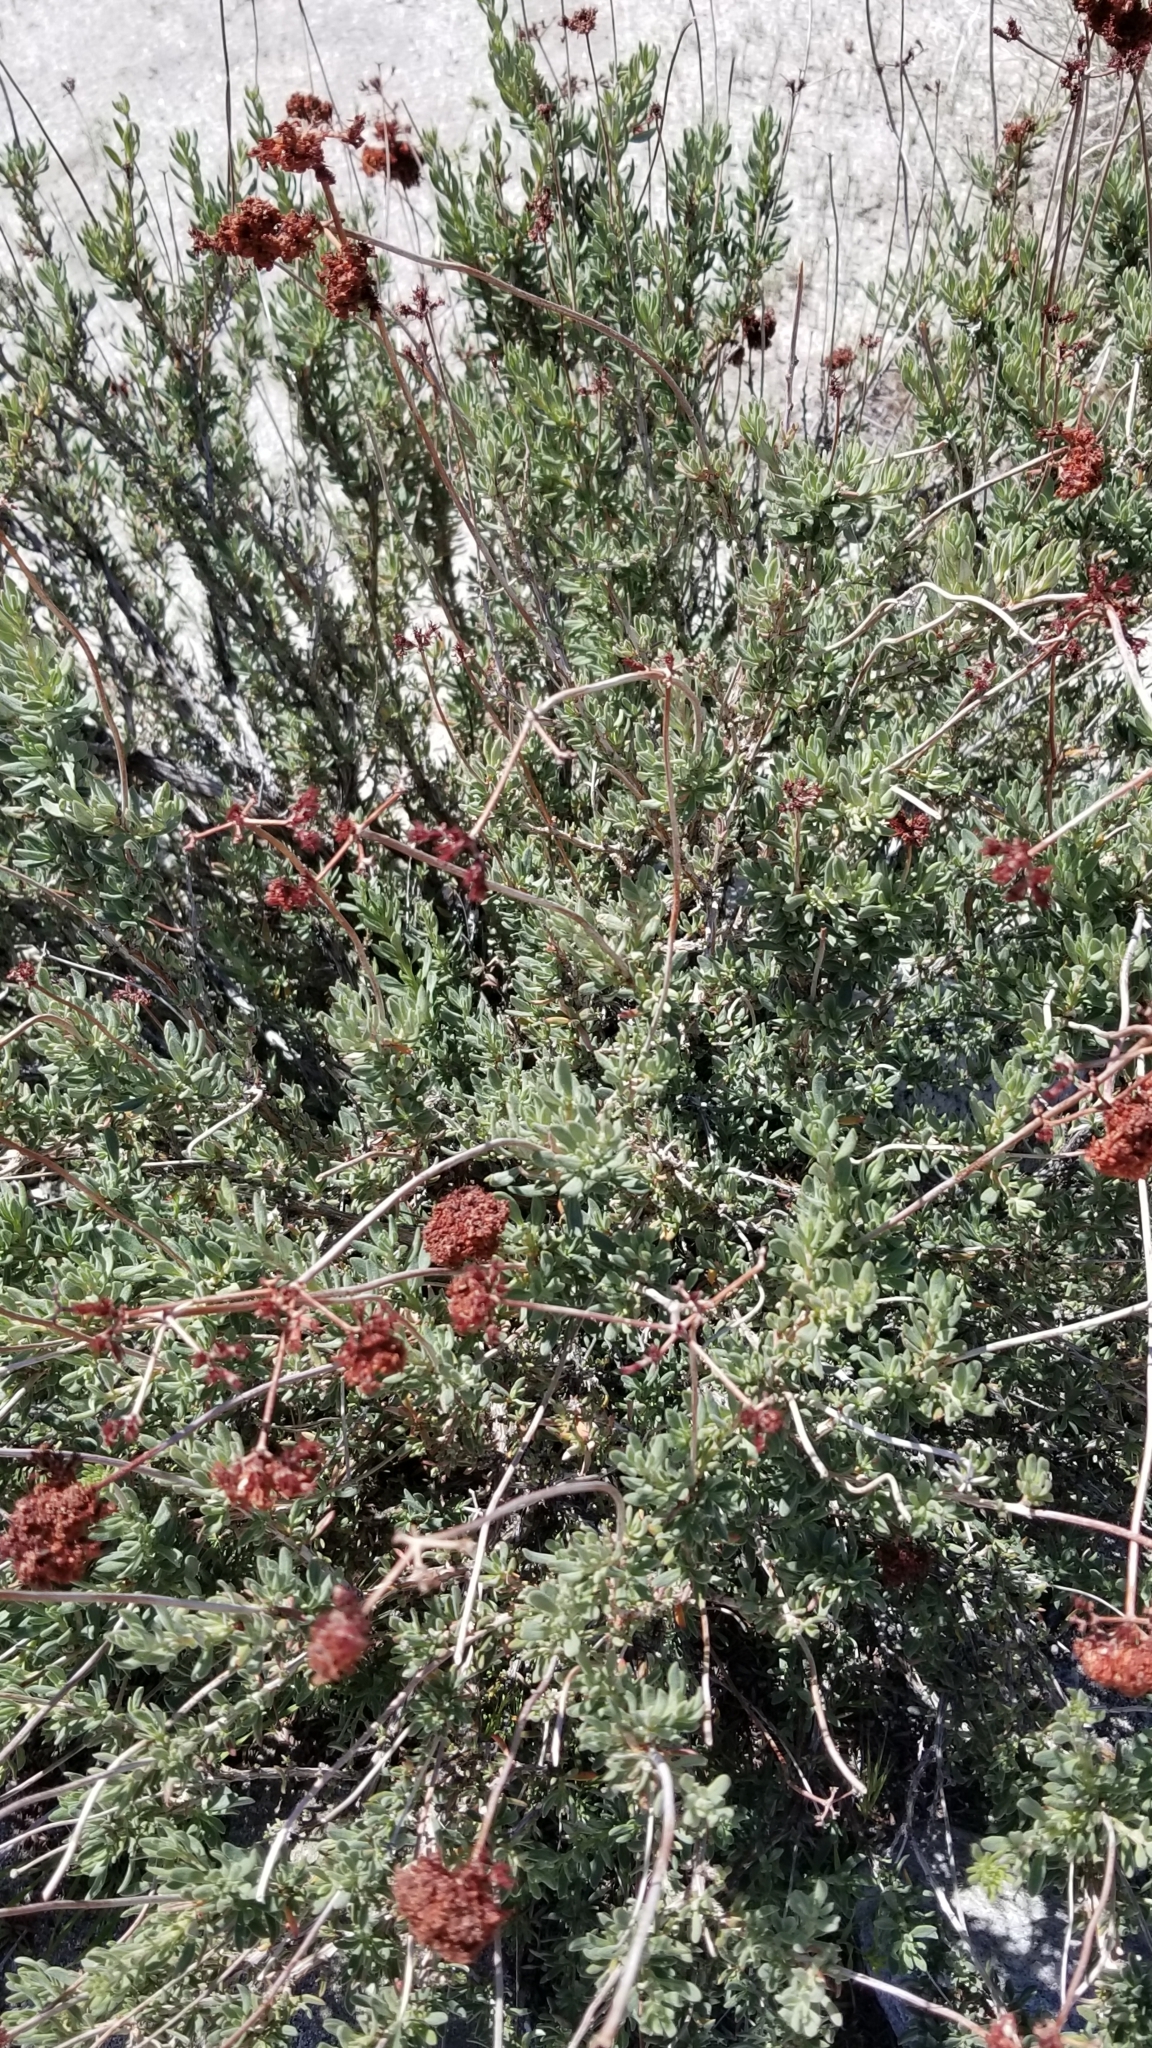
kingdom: Plantae
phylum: Tracheophyta
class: Magnoliopsida
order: Caryophyllales
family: Polygonaceae
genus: Eriogonum
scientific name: Eriogonum fasciculatum
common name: California wild buckwheat
